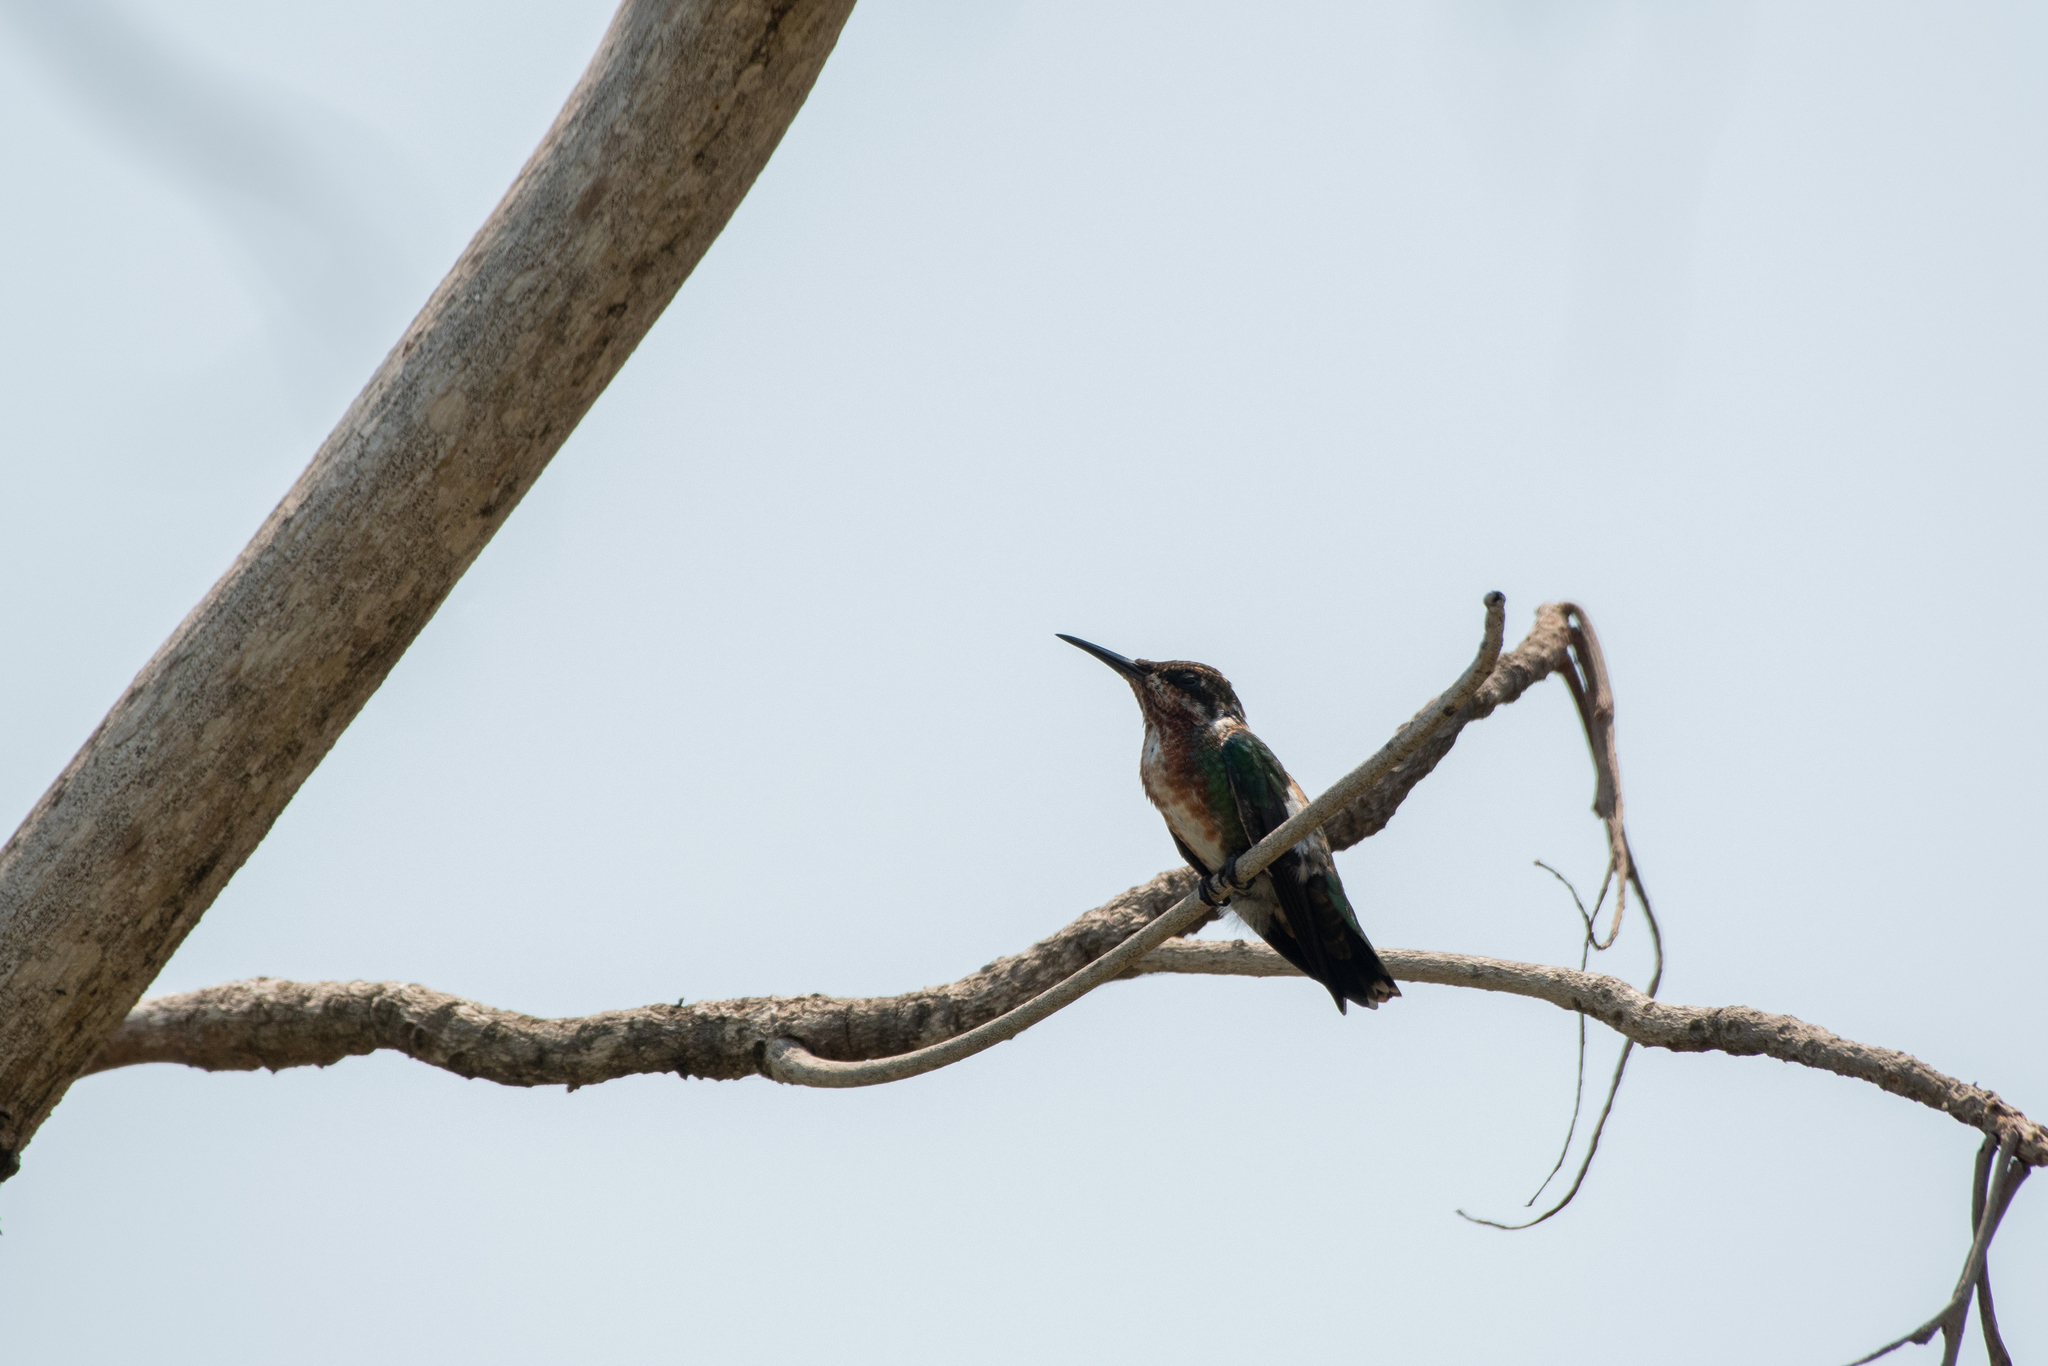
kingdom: Animalia
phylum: Chordata
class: Aves
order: Apodiformes
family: Trochilidae
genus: Anthracothorax
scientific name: Anthracothorax prevostii
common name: Green-breasted mango
